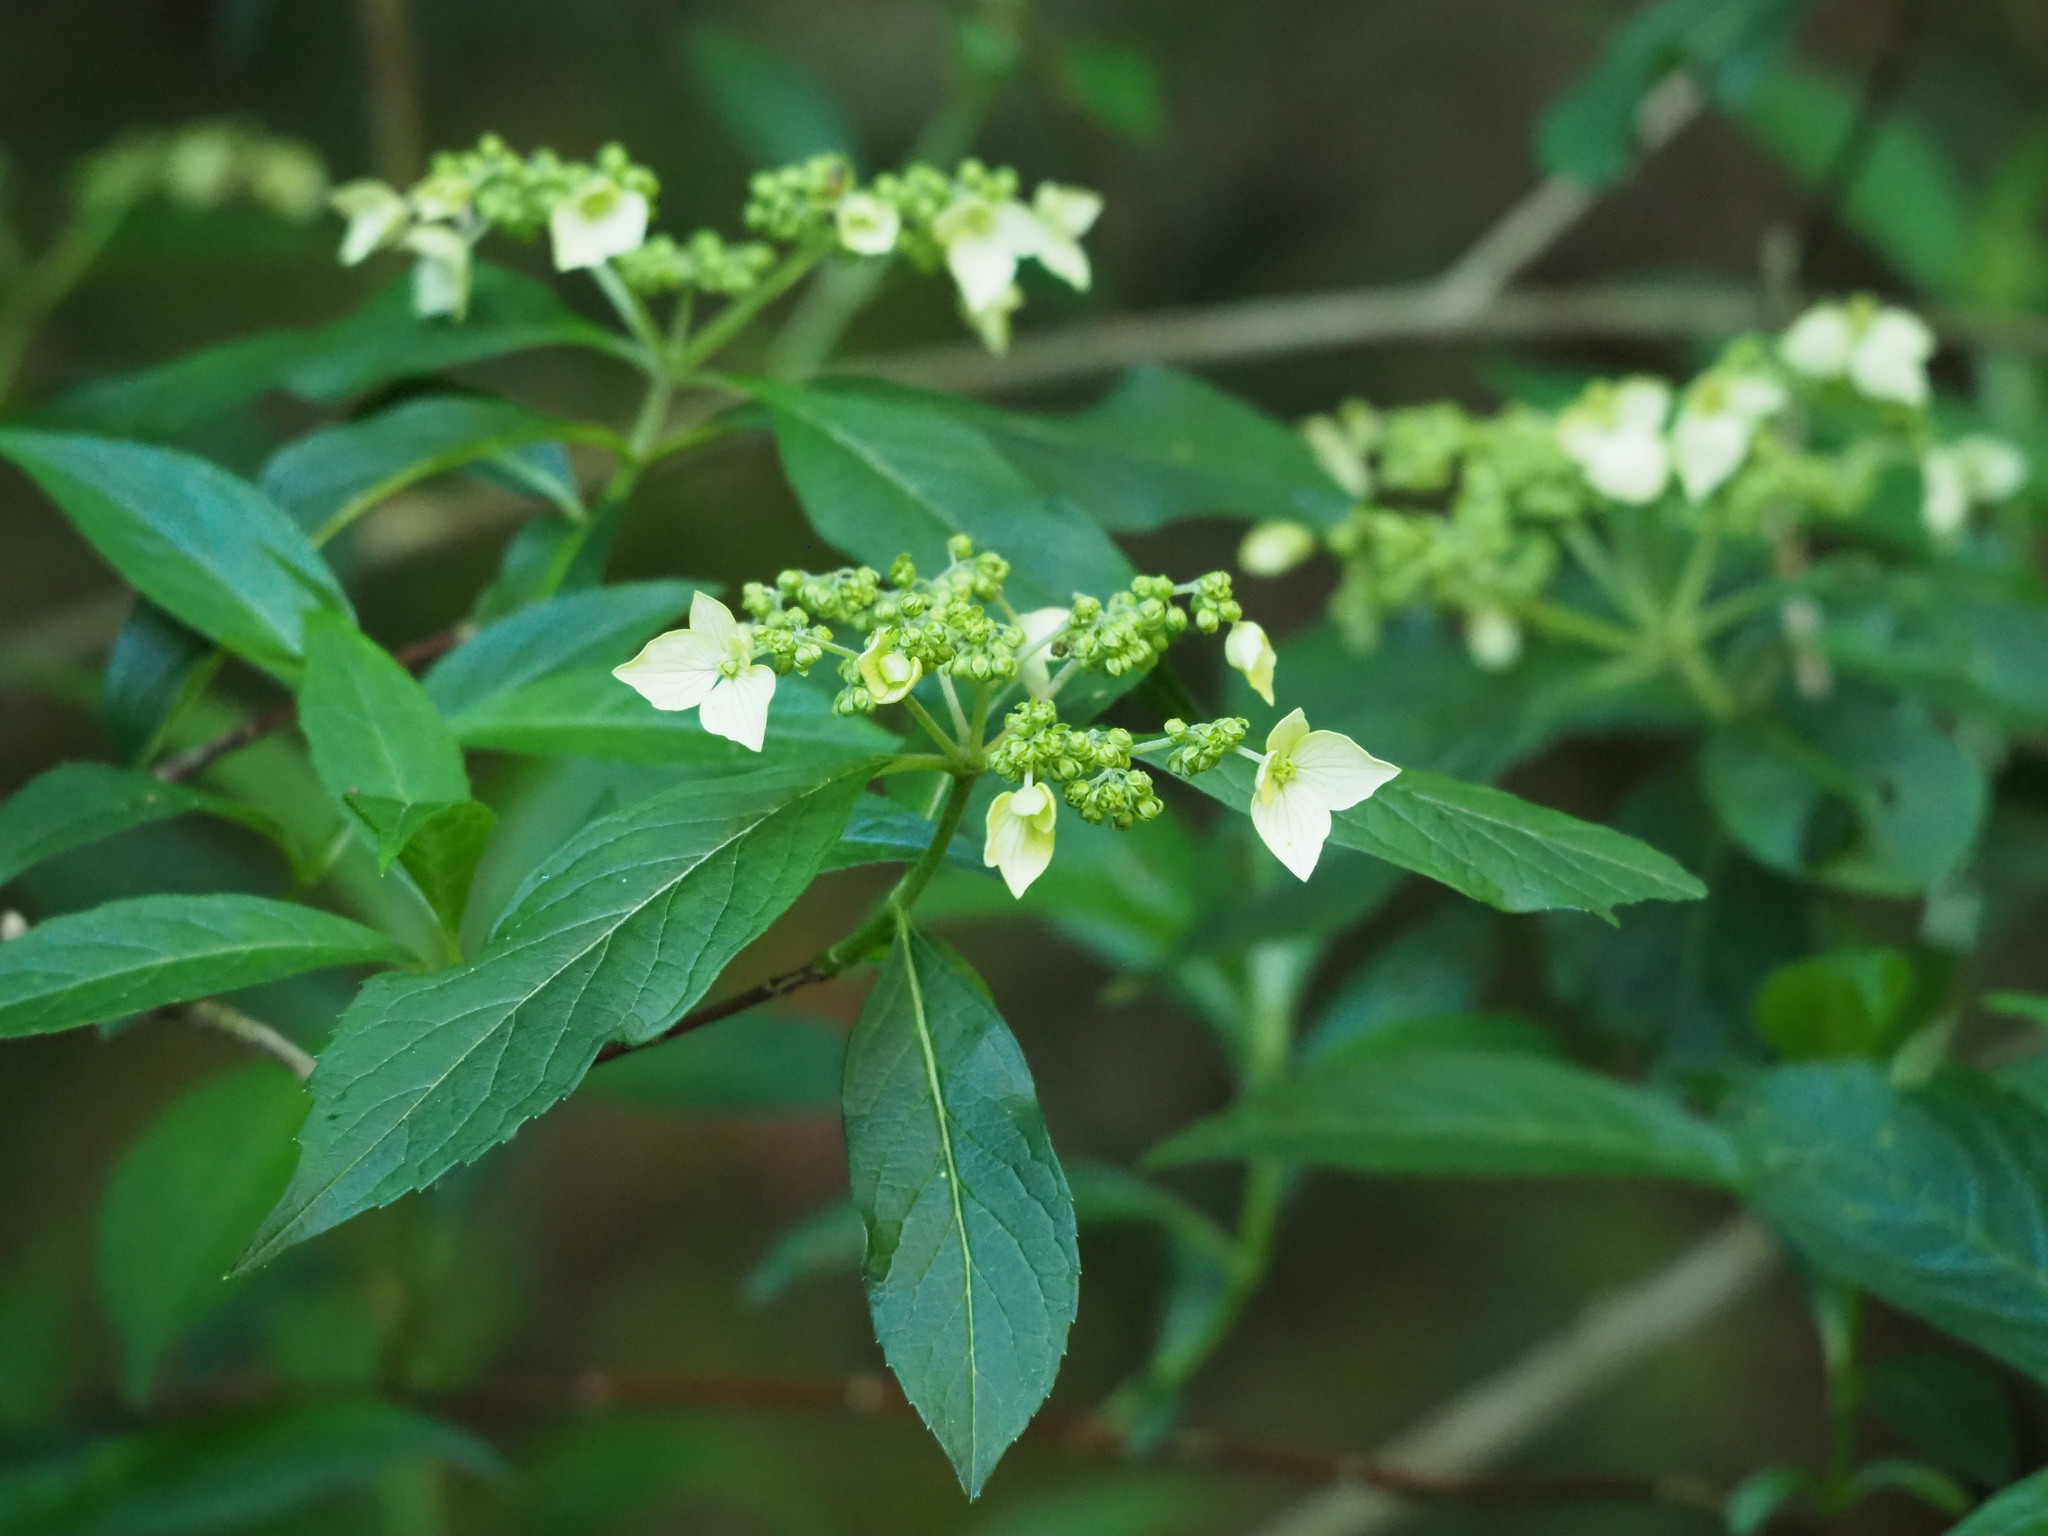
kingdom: Plantae
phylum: Tracheophyta
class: Magnoliopsida
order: Cornales
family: Hydrangeaceae
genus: Hydrangea
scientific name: Hydrangea chinensis
